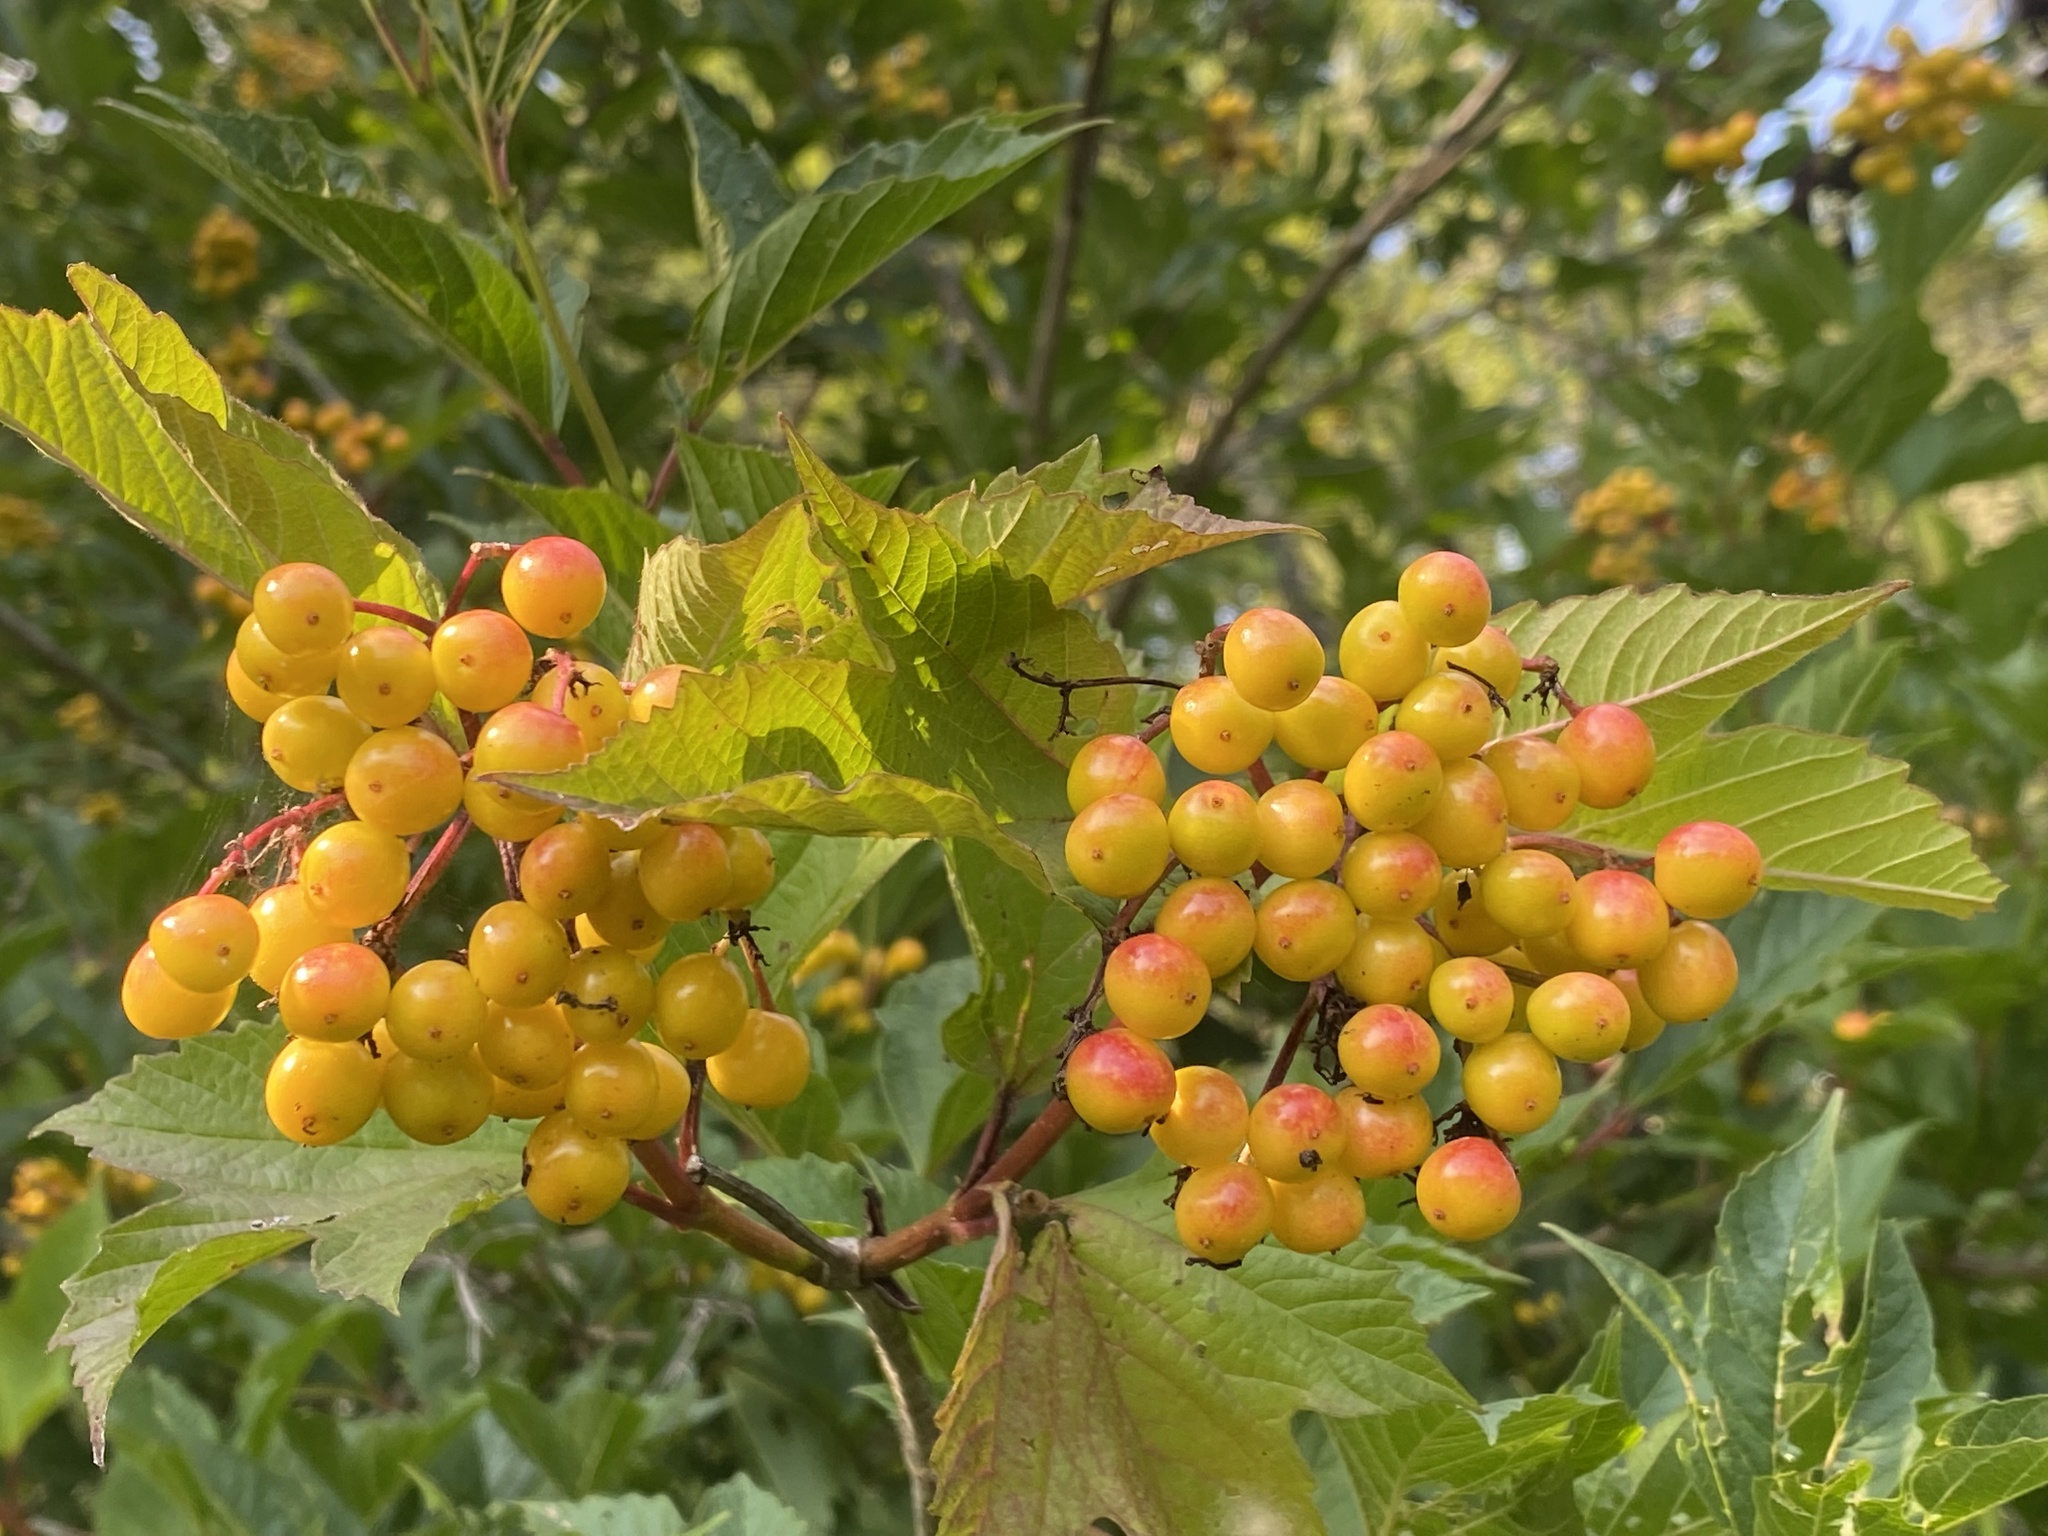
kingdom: Plantae
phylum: Tracheophyta
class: Magnoliopsida
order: Dipsacales
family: Viburnaceae
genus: Viburnum
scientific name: Viburnum opulus
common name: Guelder-rose
